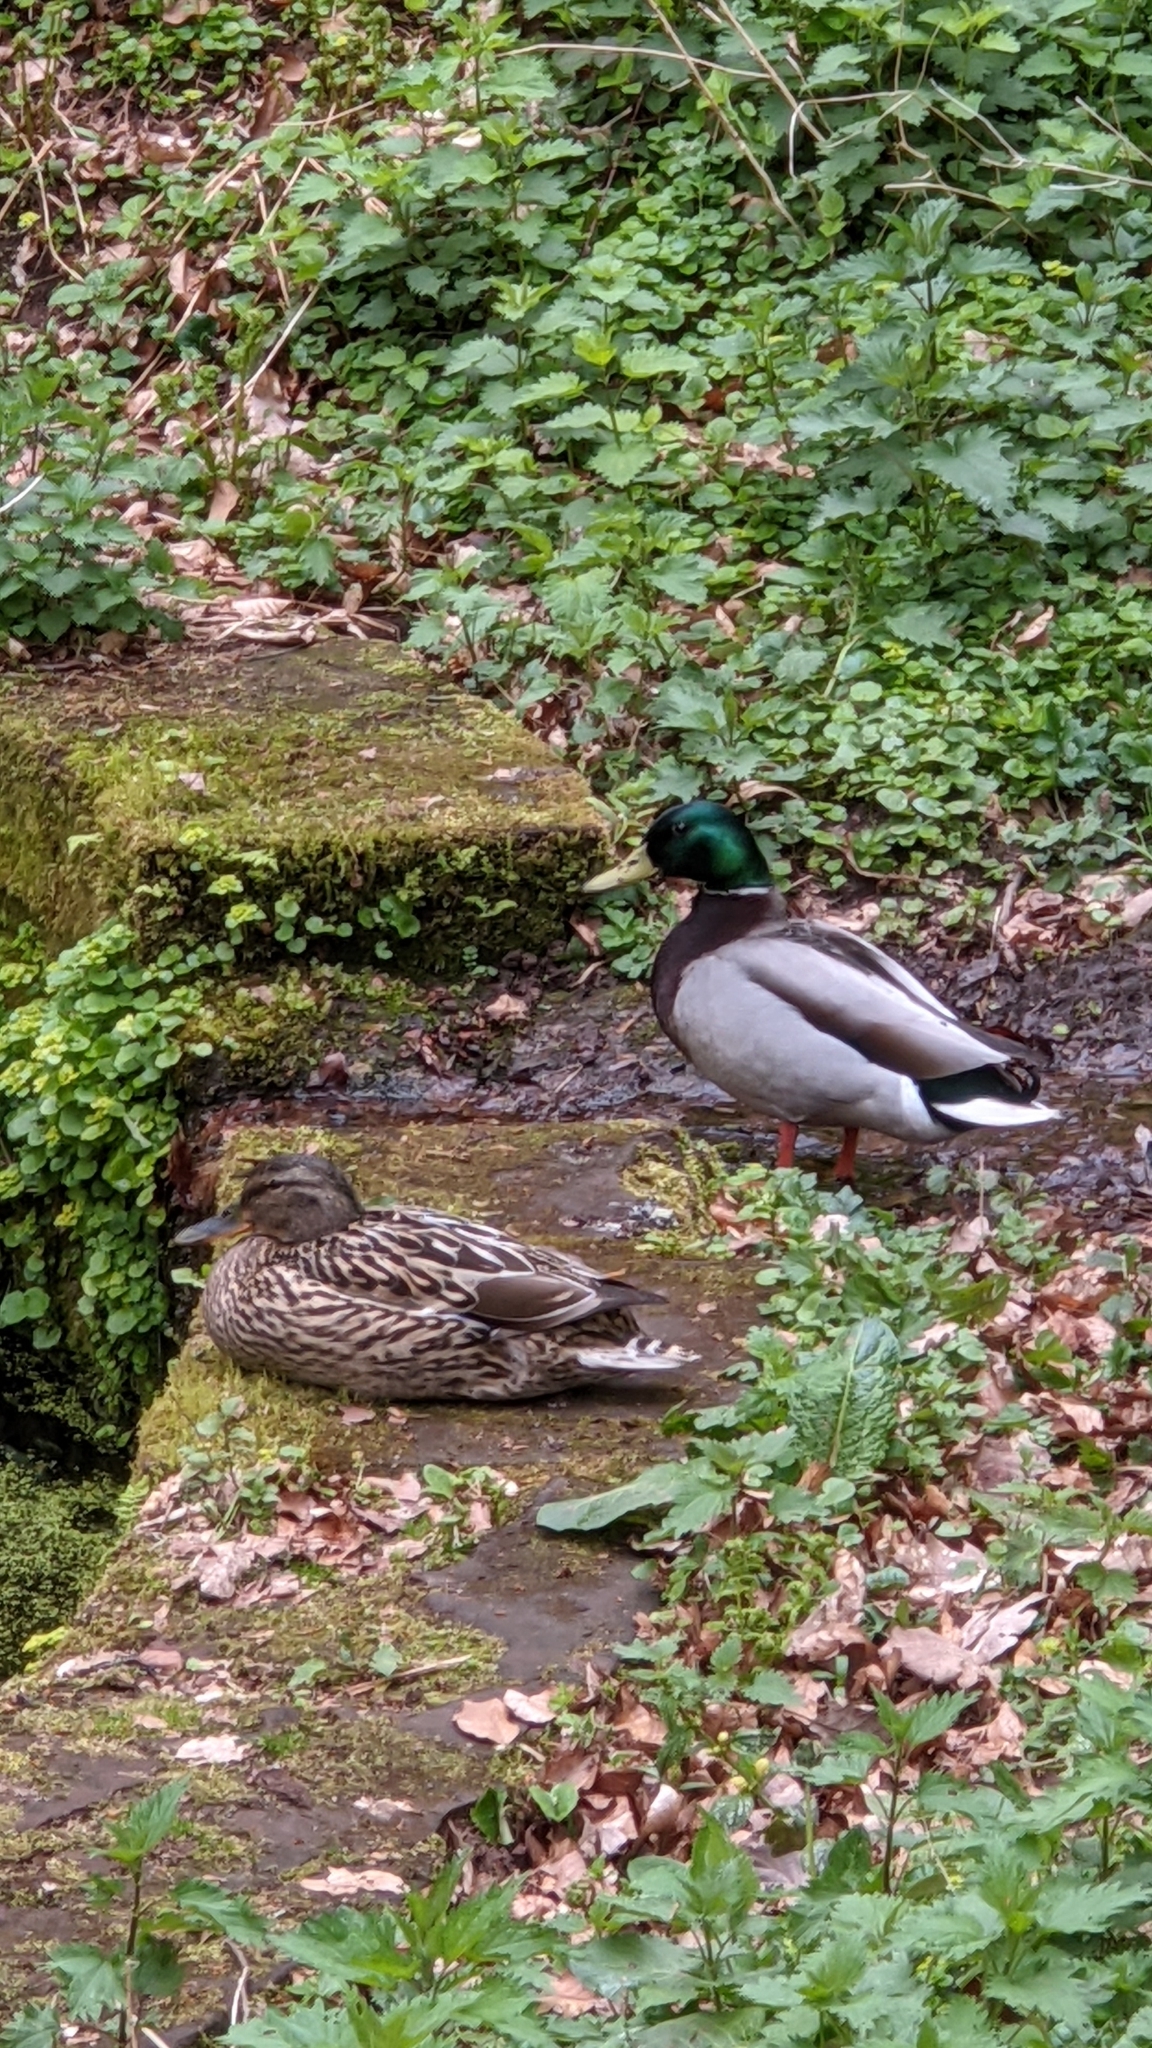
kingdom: Animalia
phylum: Chordata
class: Aves
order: Anseriformes
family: Anatidae
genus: Anas
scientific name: Anas platyrhynchos
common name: Mallard
